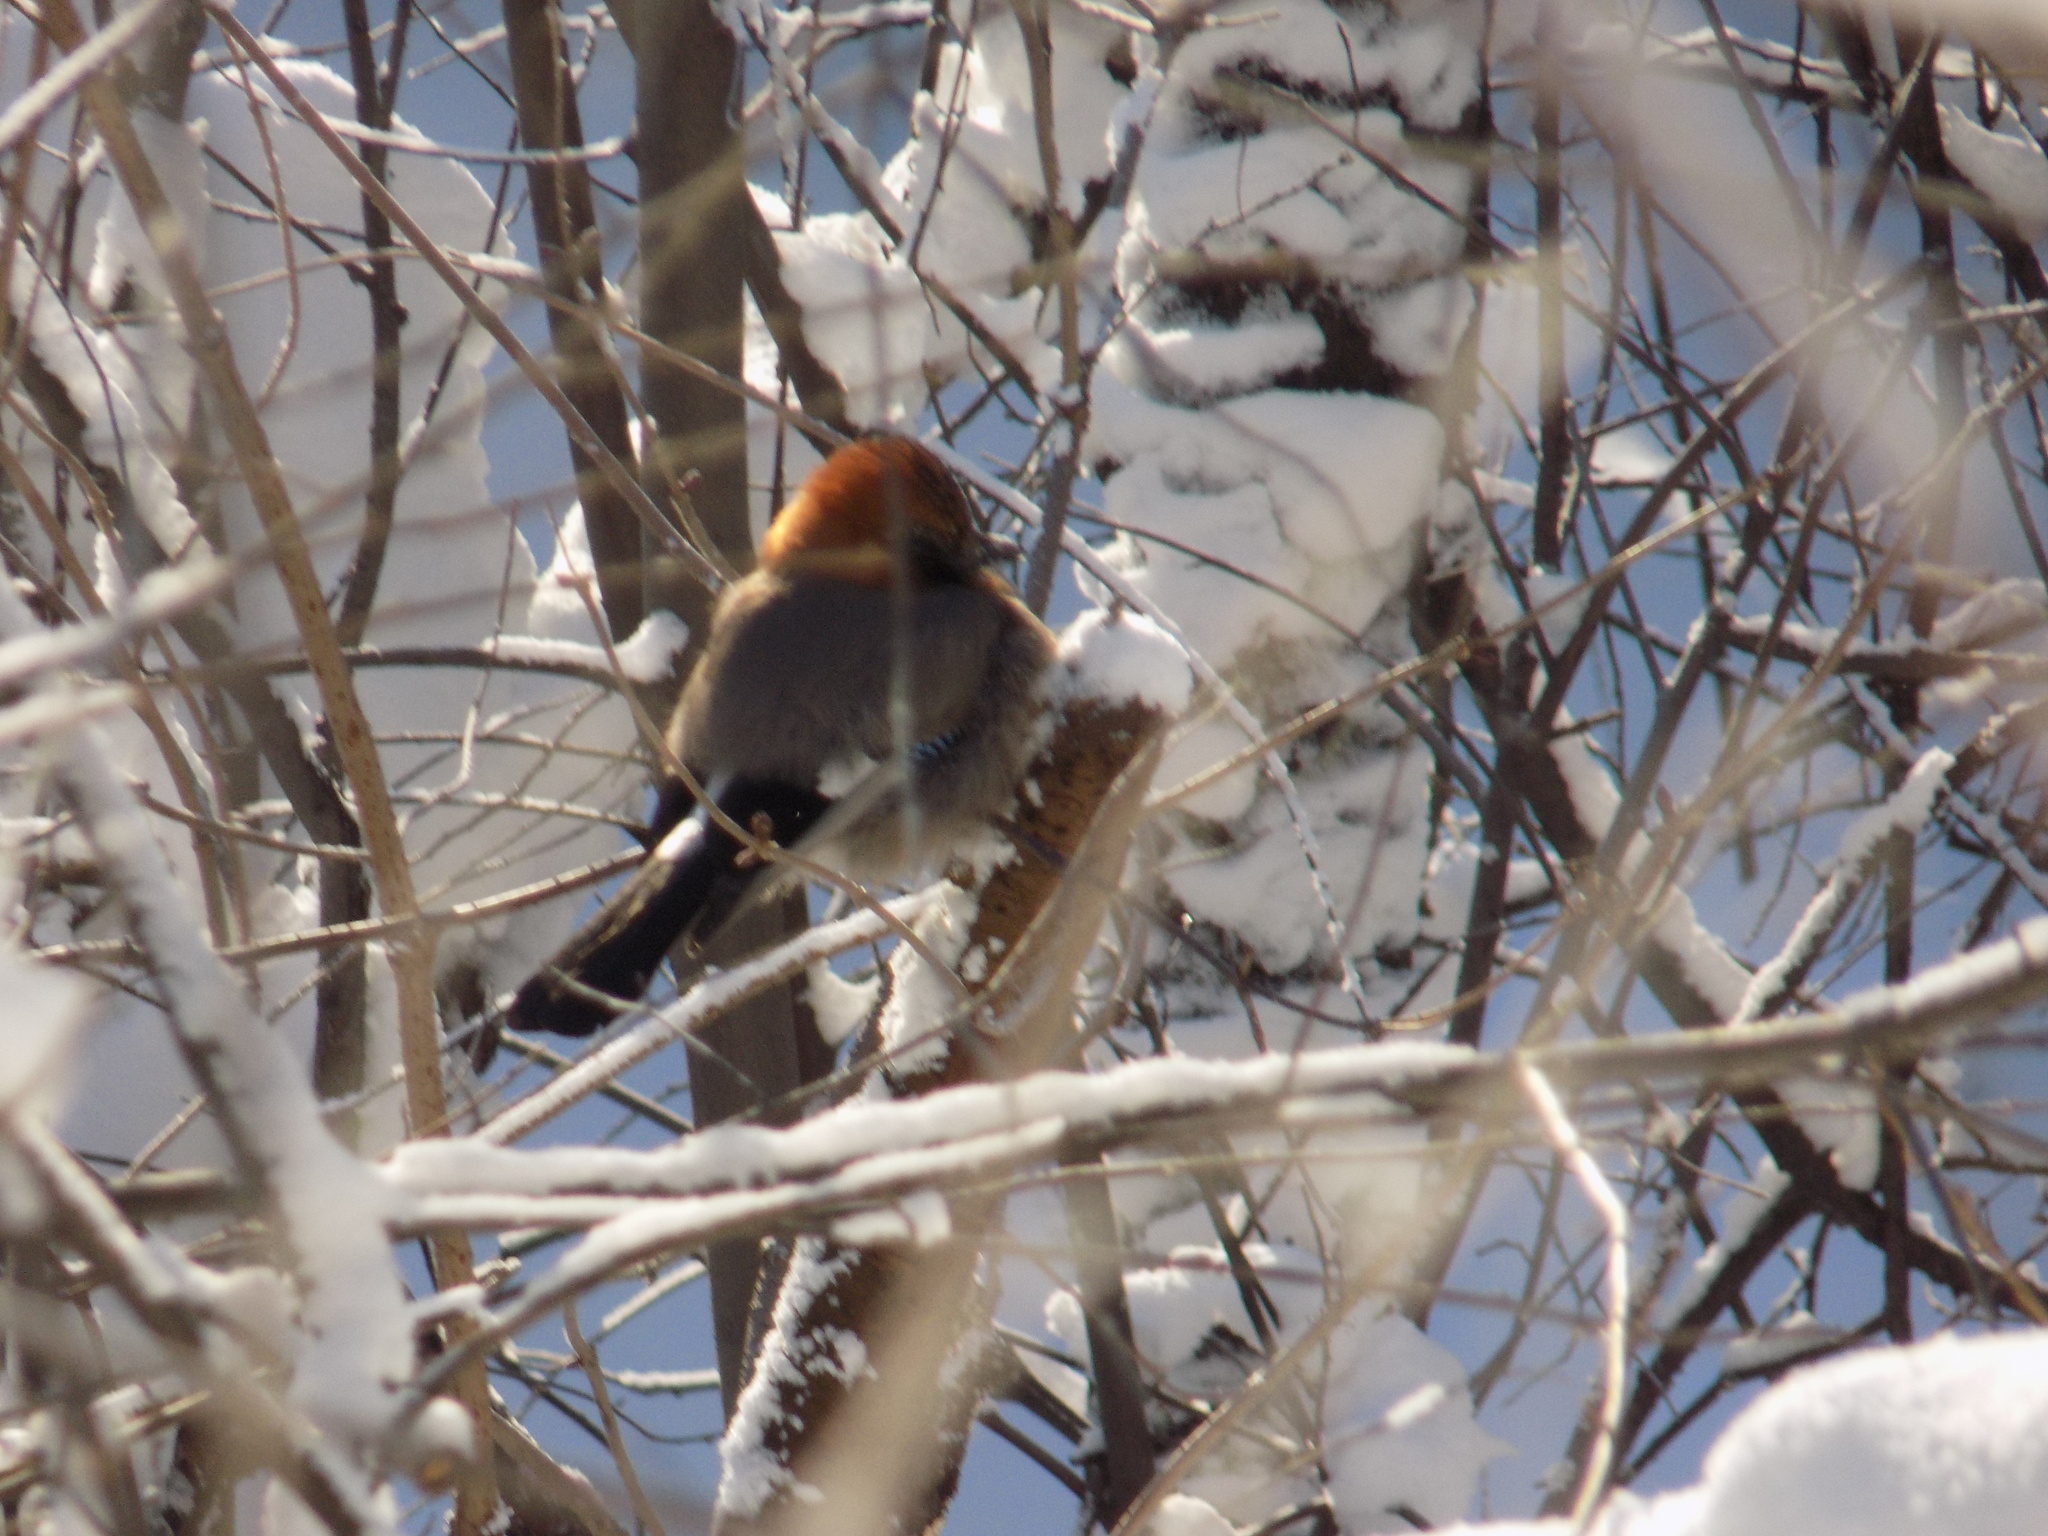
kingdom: Animalia
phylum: Chordata
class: Aves
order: Passeriformes
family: Corvidae
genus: Garrulus
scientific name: Garrulus glandarius
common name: Eurasian jay
